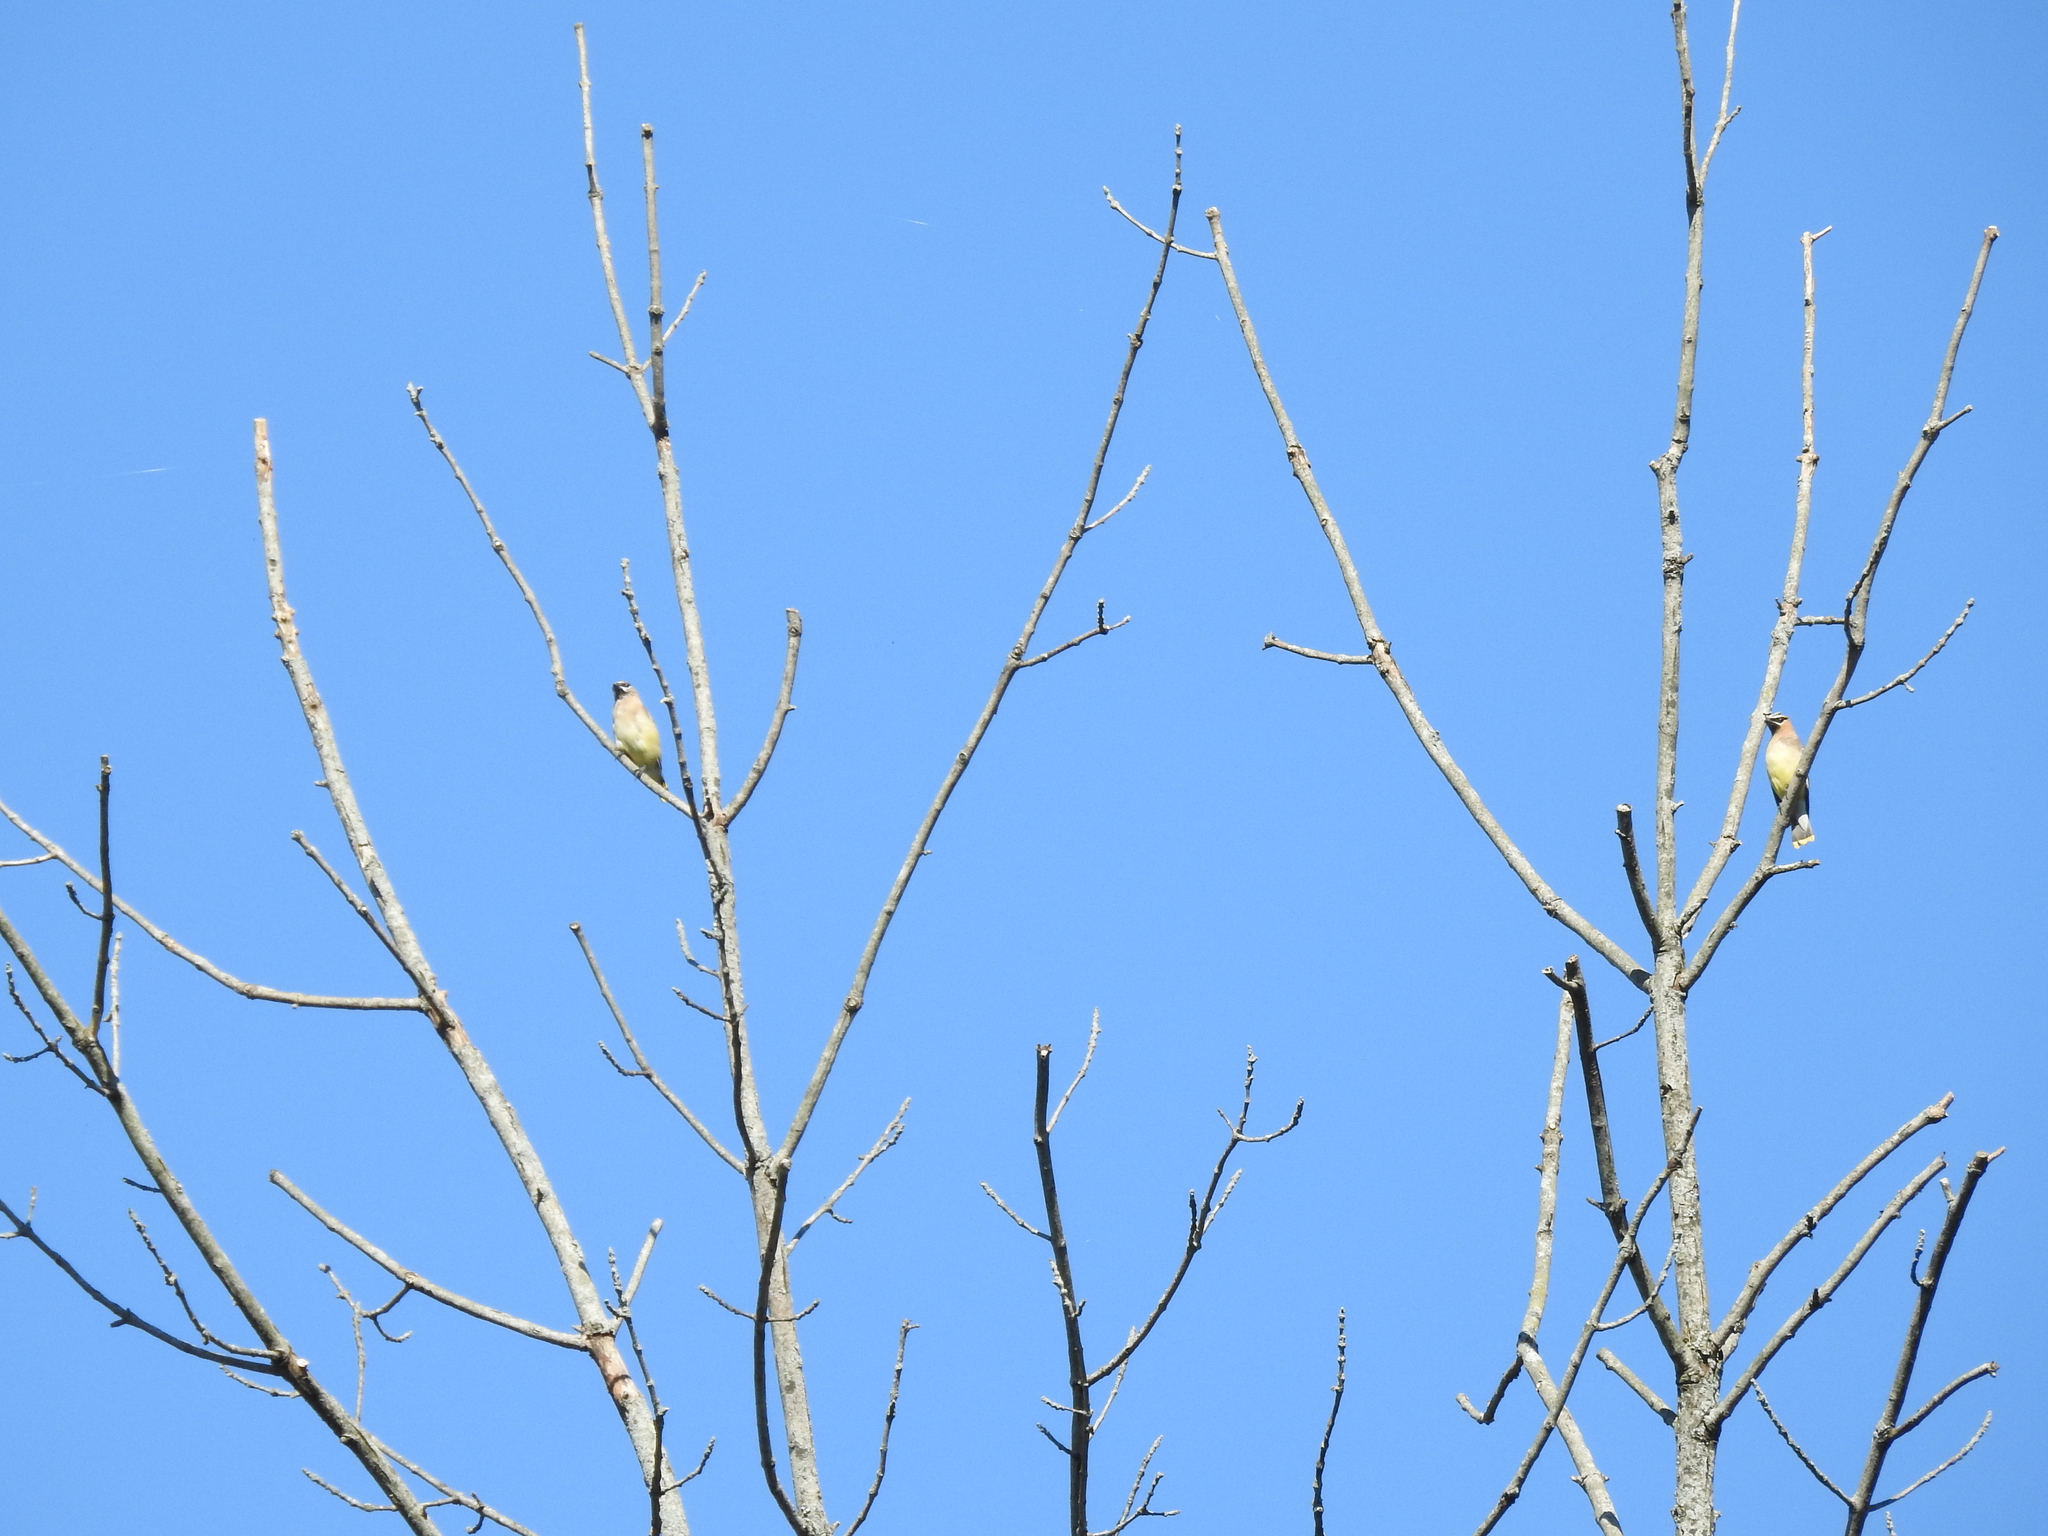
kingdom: Animalia
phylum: Chordata
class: Aves
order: Passeriformes
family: Bombycillidae
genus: Bombycilla
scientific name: Bombycilla cedrorum
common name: Cedar waxwing
